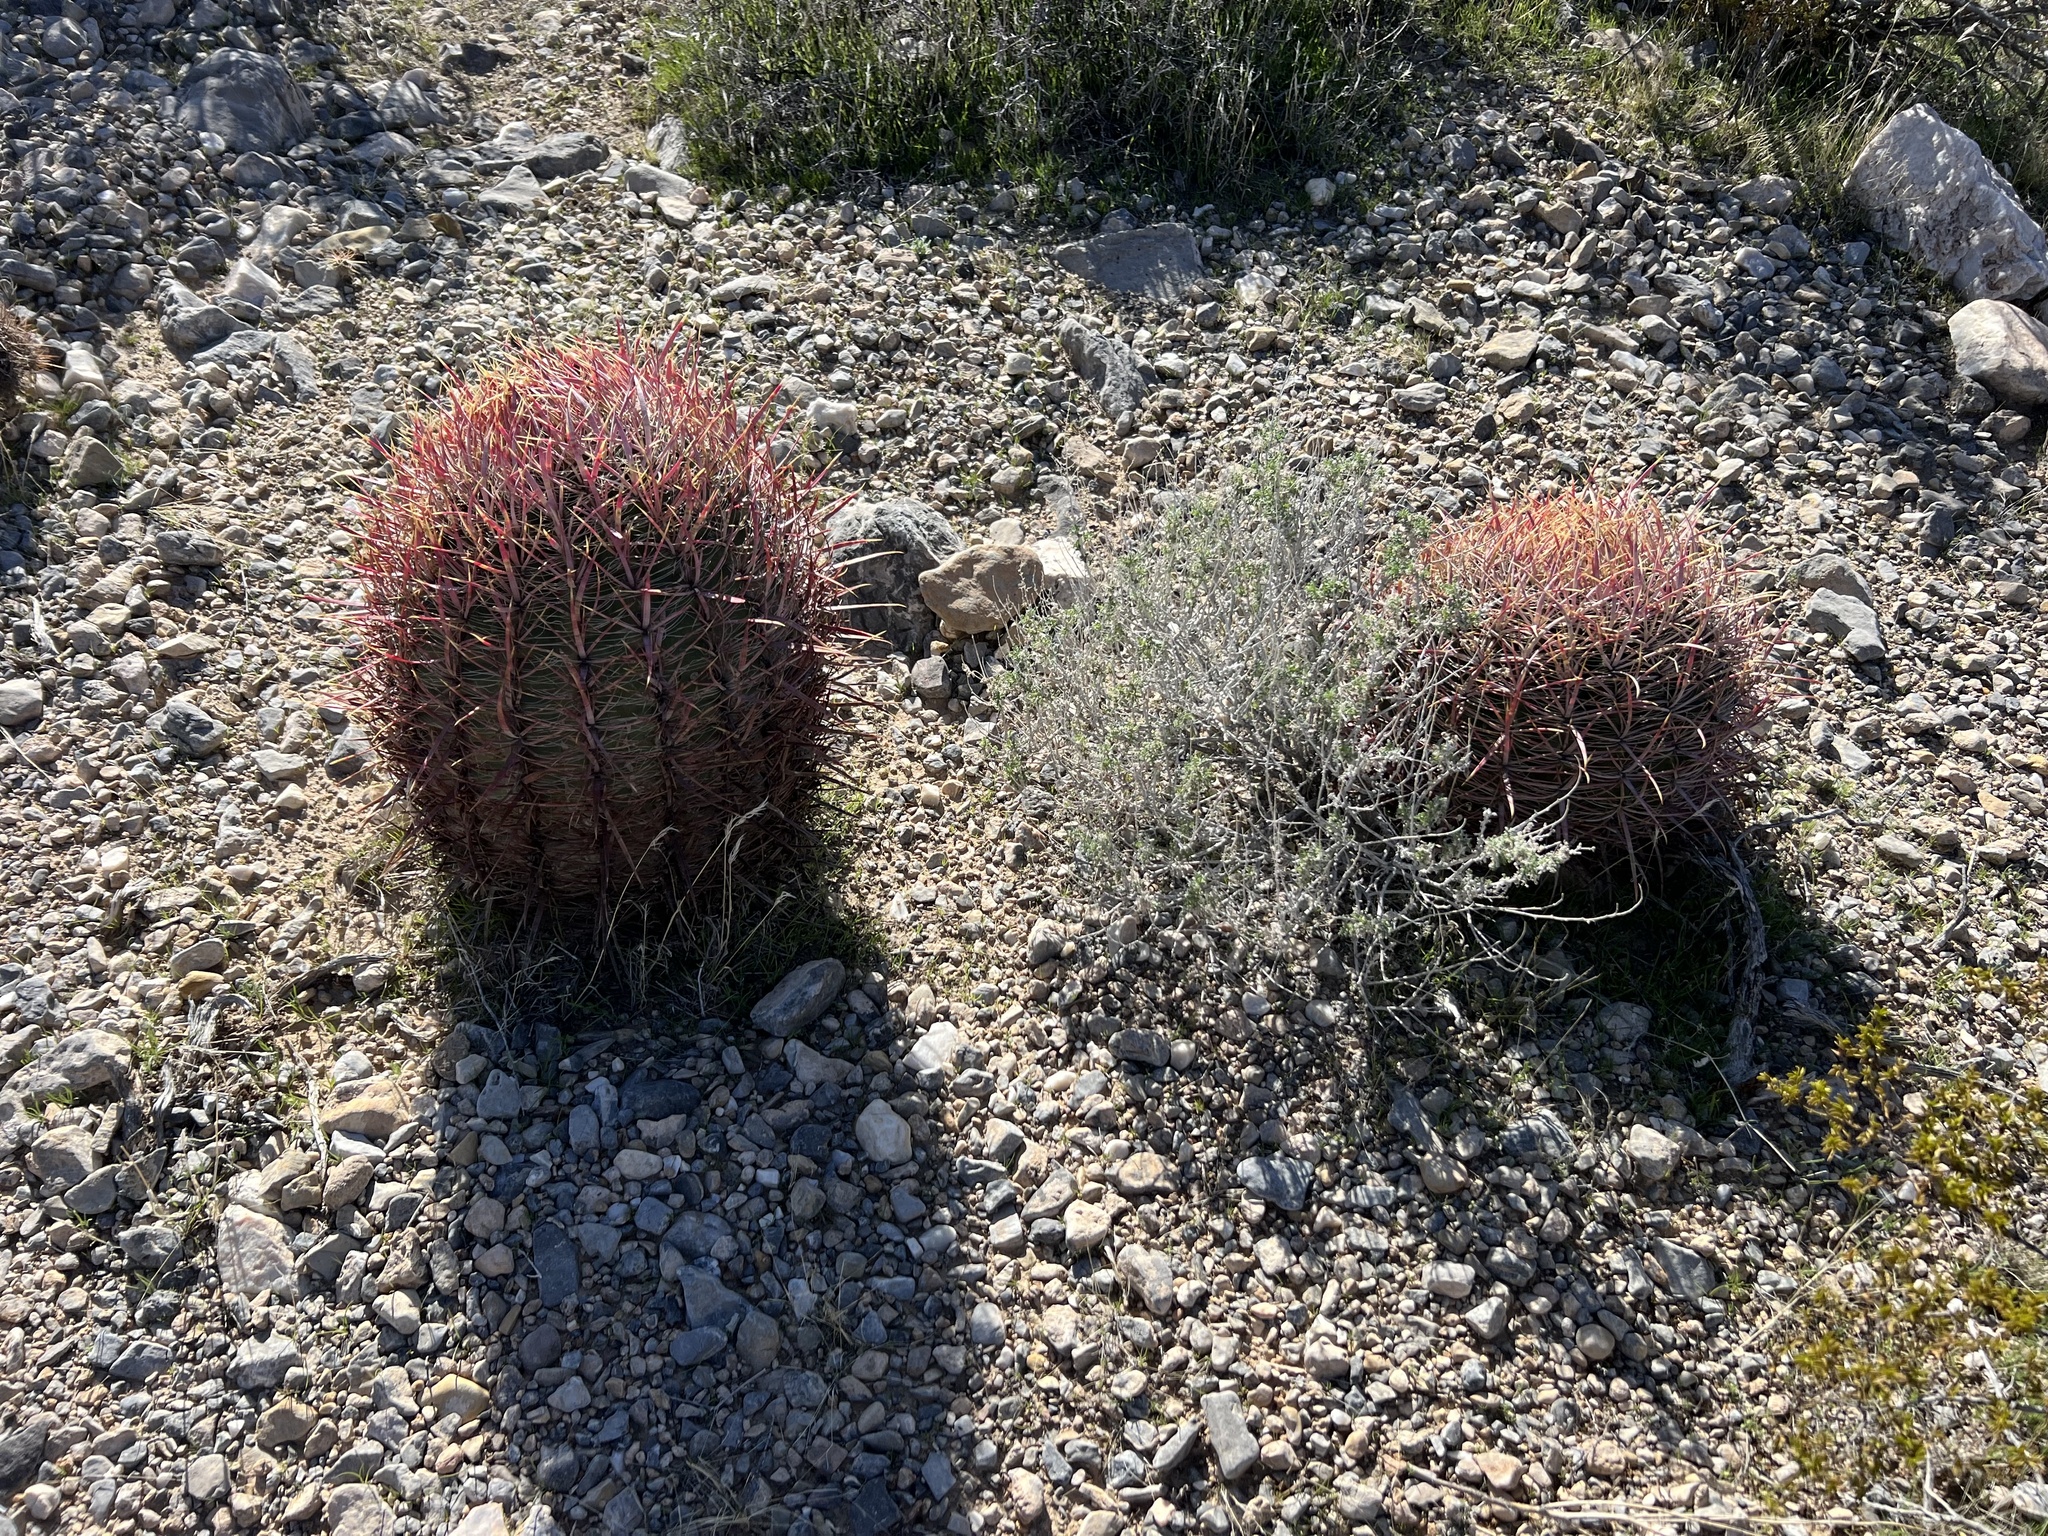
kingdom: Plantae
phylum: Tracheophyta
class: Magnoliopsida
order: Caryophyllales
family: Cactaceae
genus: Ferocactus
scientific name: Ferocactus cylindraceus
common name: California barrel cactus
